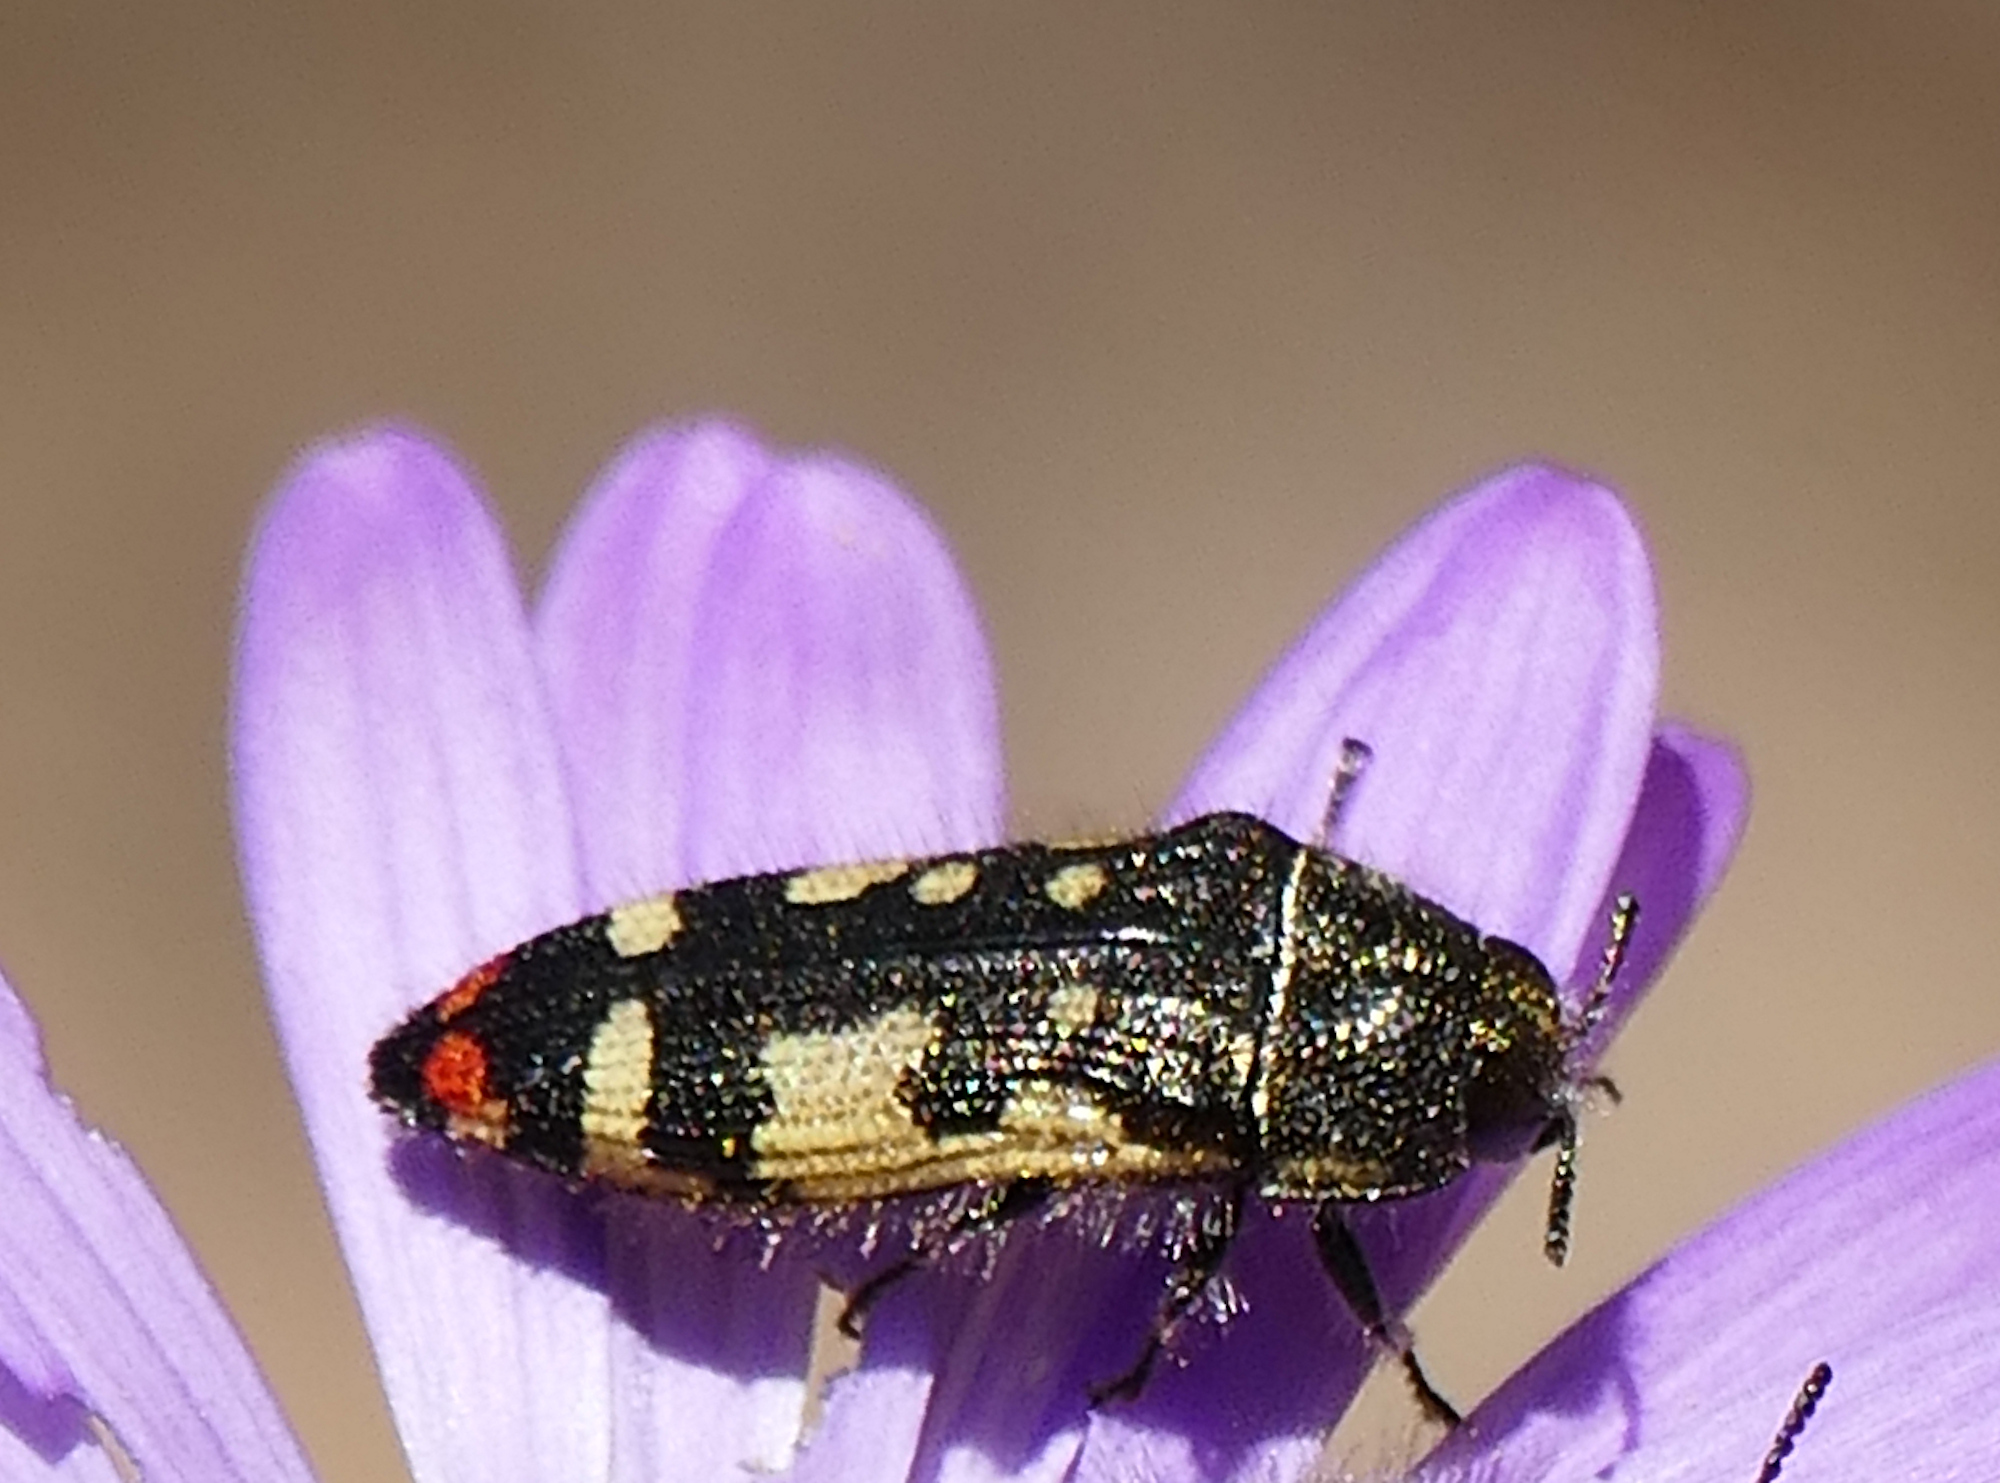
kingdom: Animalia
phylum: Arthropoda
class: Insecta
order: Coleoptera
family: Buprestidae
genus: Acmaeodera
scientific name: Acmaeodera amabilis
